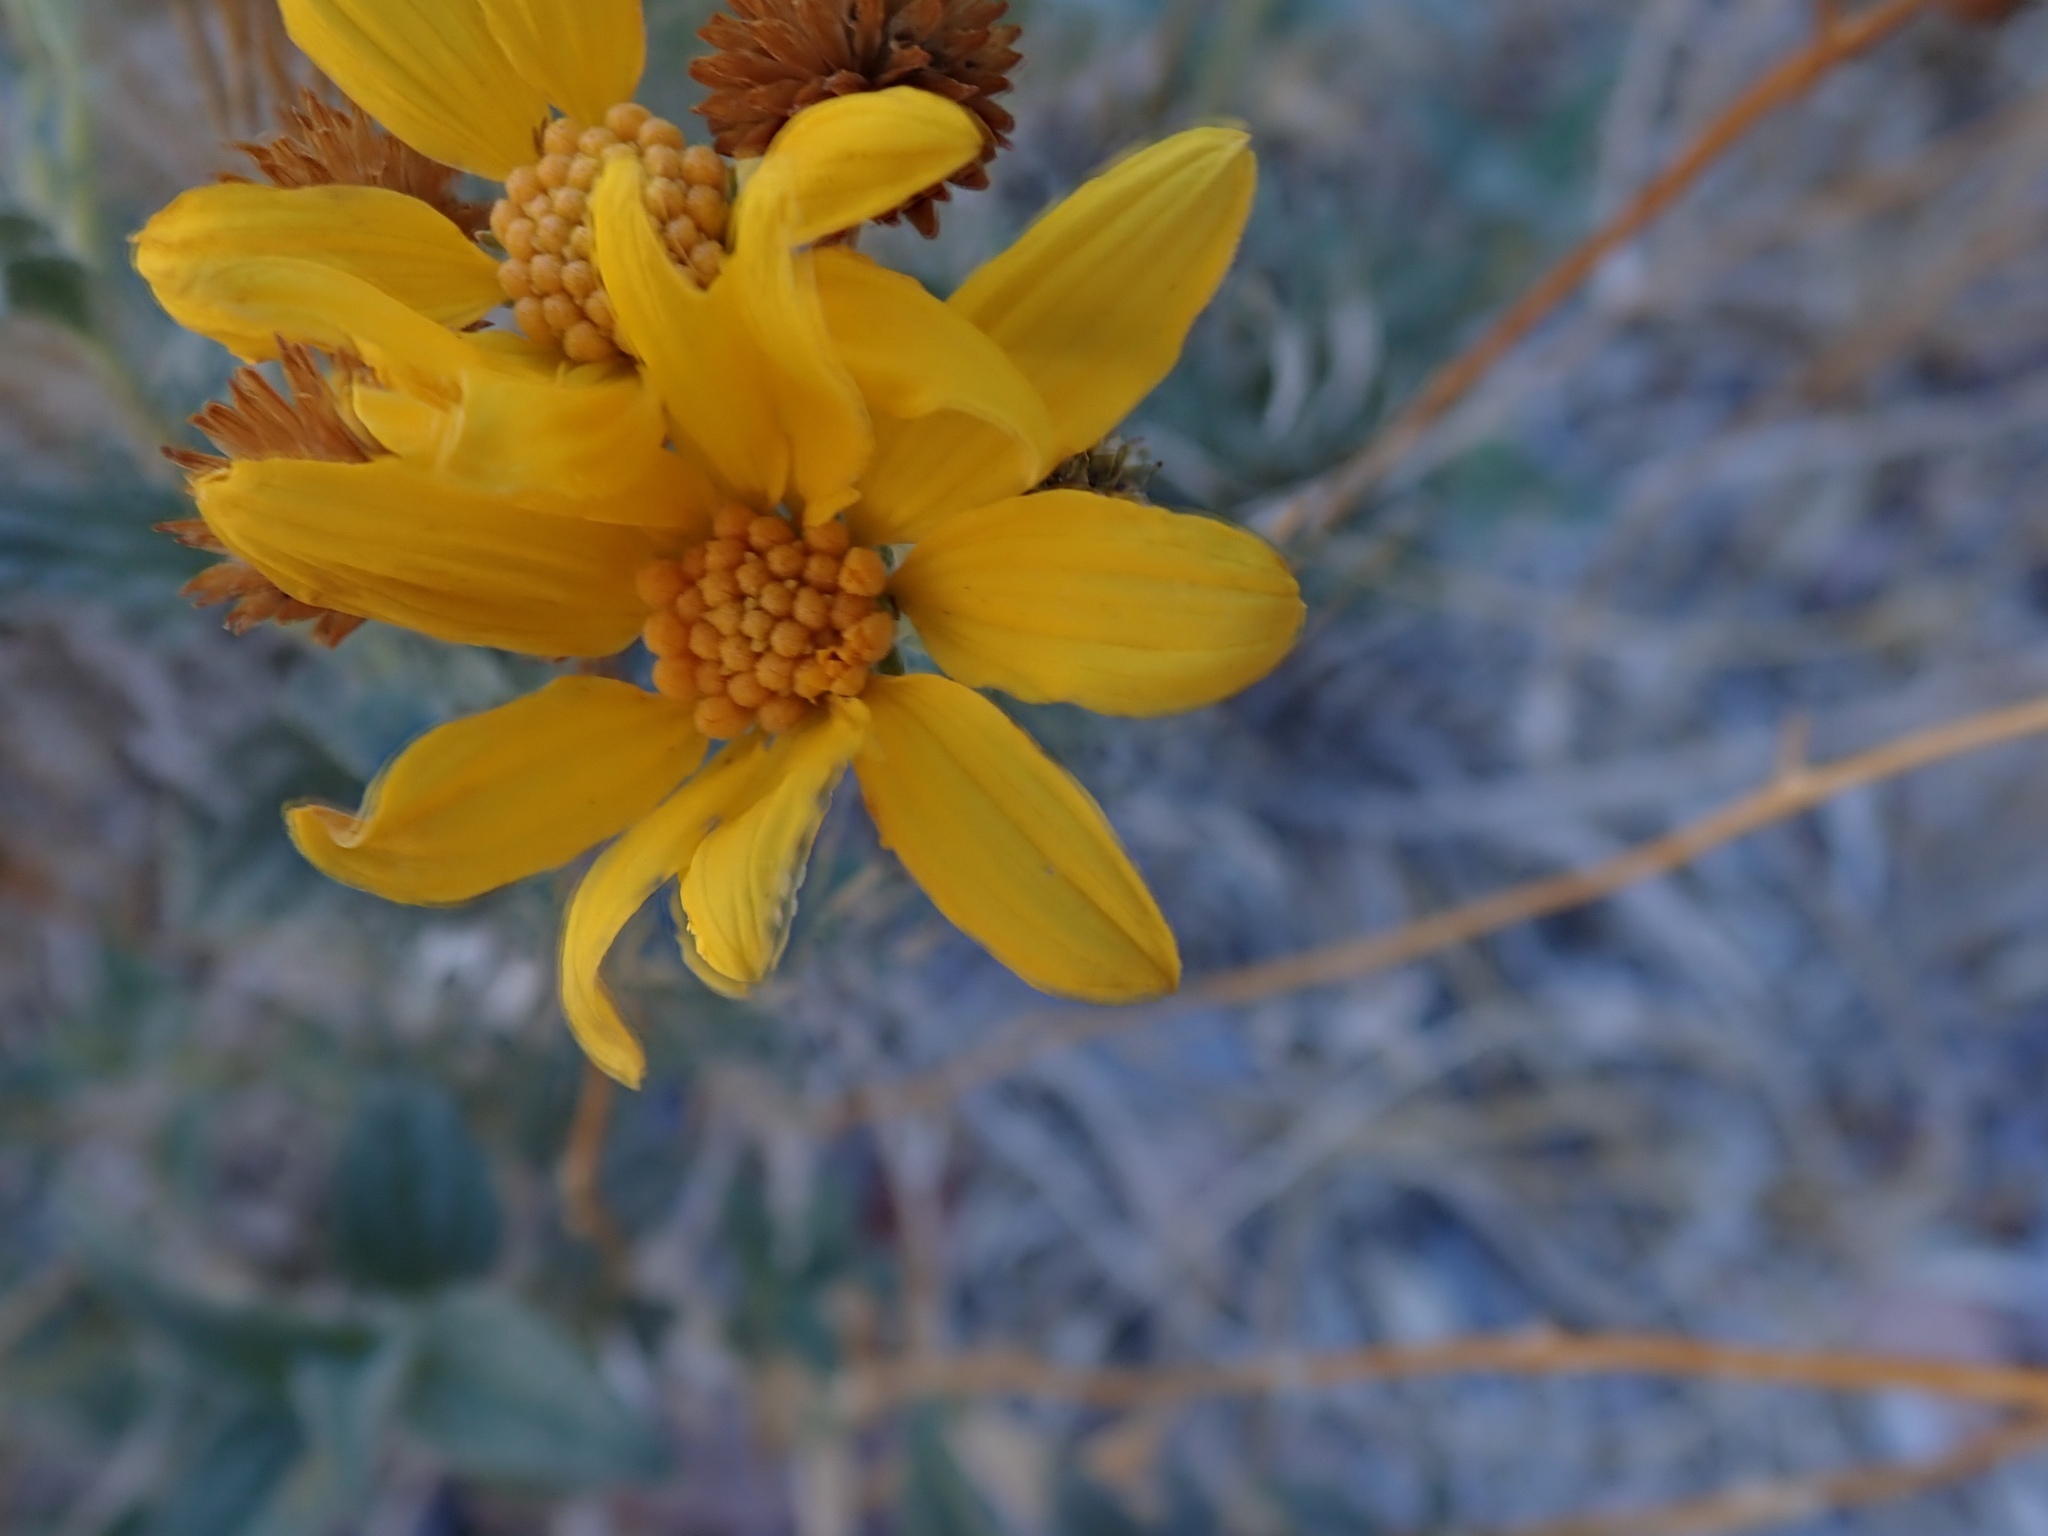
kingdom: Plantae
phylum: Tracheophyta
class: Magnoliopsida
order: Asterales
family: Asteraceae
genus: Bahiopsis
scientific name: Bahiopsis reticulata
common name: Death valley goldeneye
